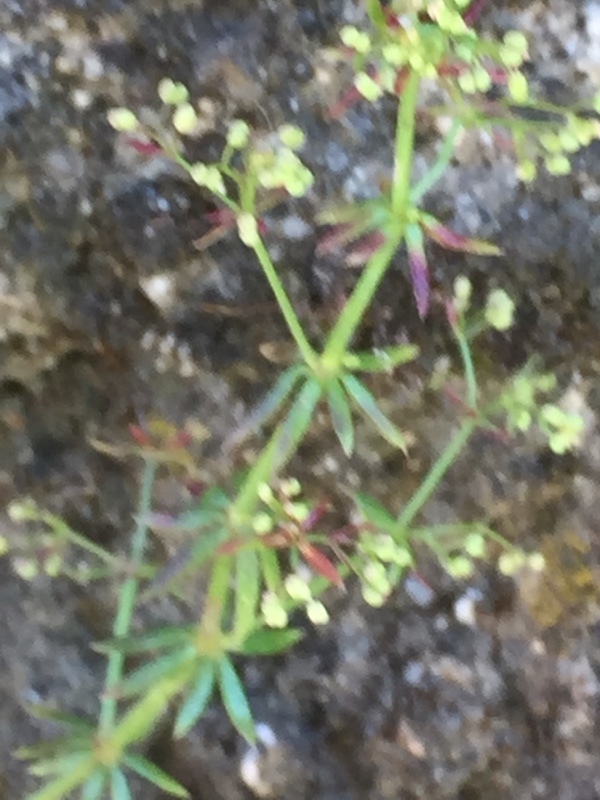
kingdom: Plantae
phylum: Tracheophyta
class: Magnoliopsida
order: Gentianales
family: Rubiaceae
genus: Galium
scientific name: Galium parisiense
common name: Wall bedstraw
